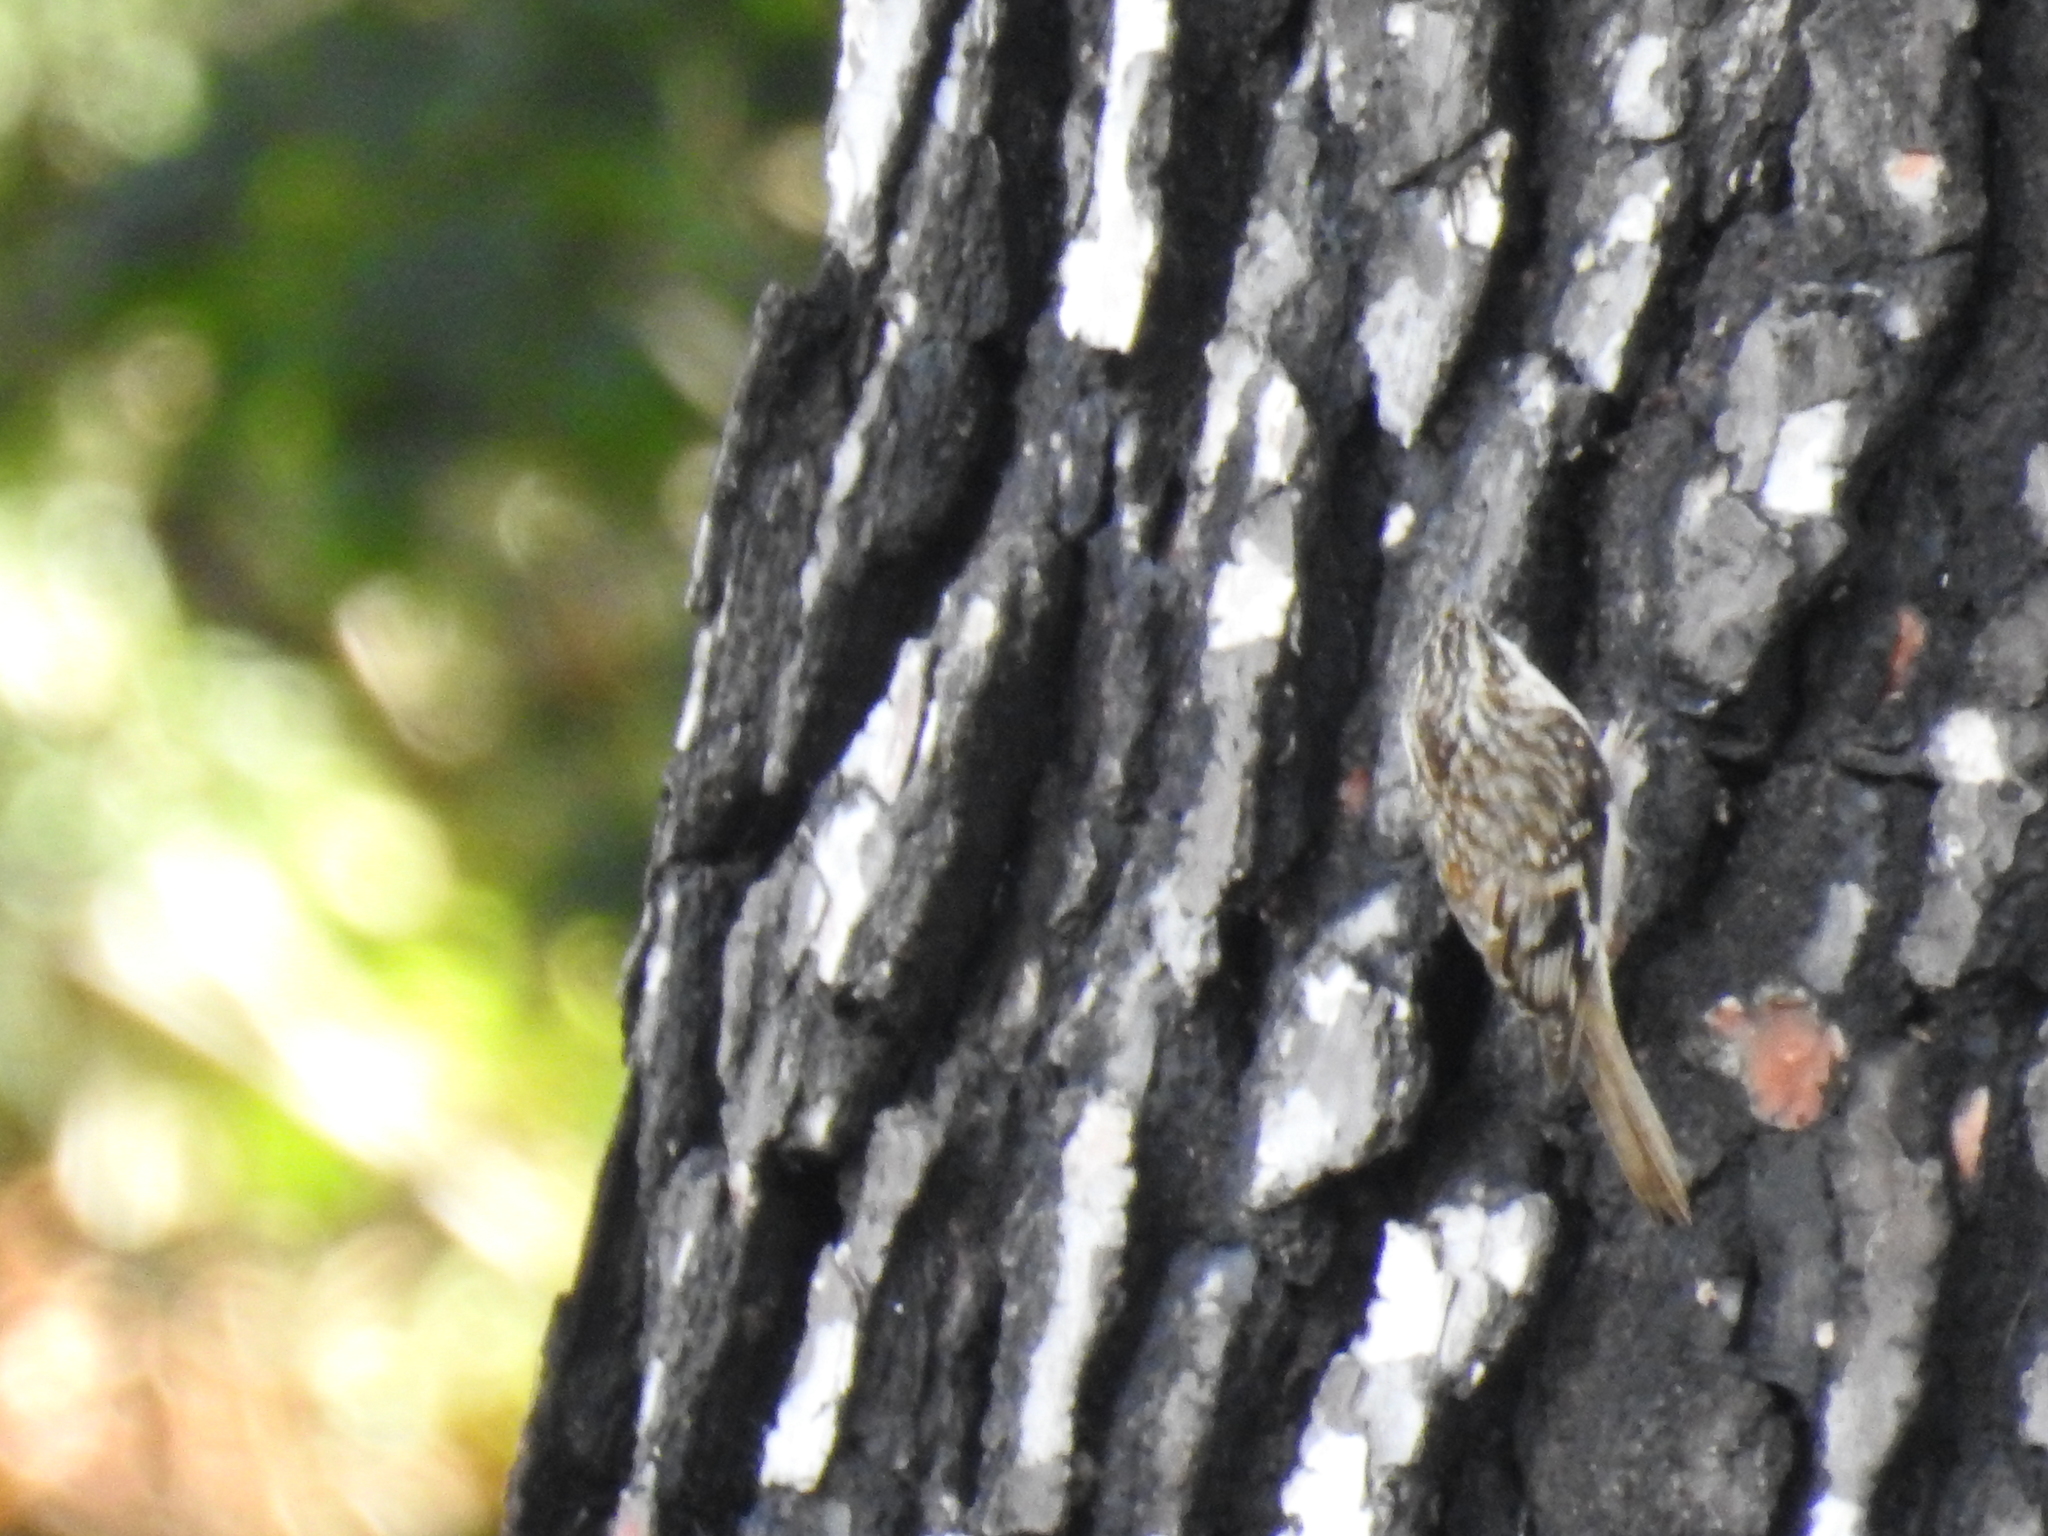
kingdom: Animalia
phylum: Chordata
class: Aves
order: Passeriformes
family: Certhiidae
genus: Certhia
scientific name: Certhia americana
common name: Brown creeper
